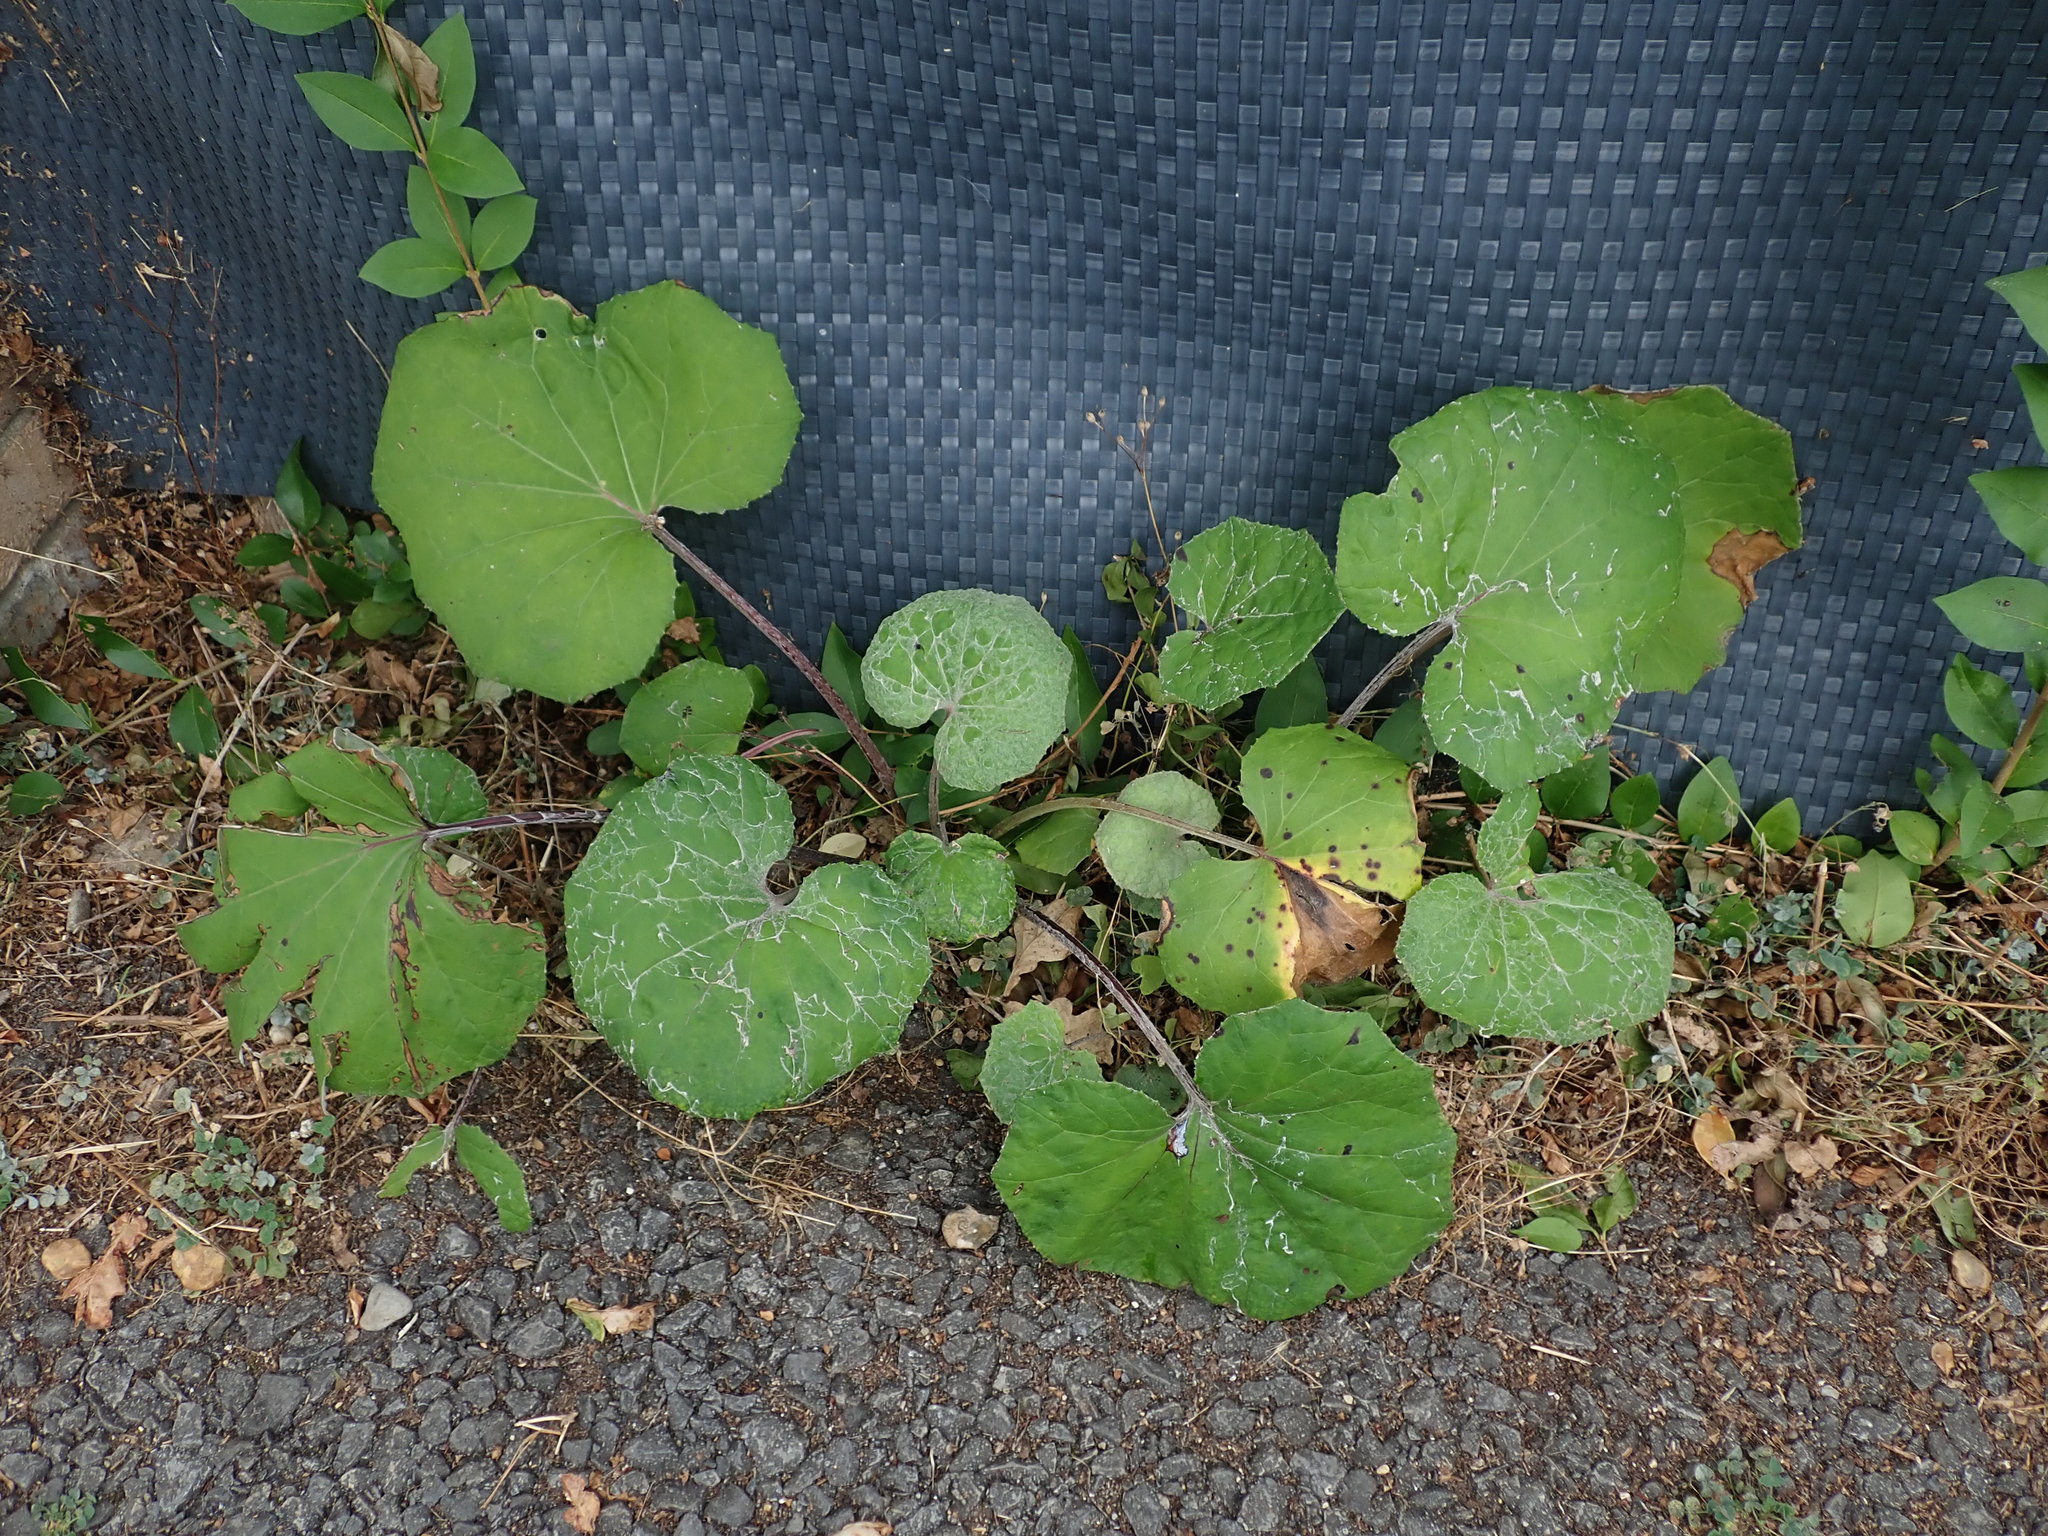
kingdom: Plantae
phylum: Tracheophyta
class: Magnoliopsida
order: Asterales
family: Asteraceae
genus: Tussilago
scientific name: Tussilago farfara
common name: Coltsfoot
